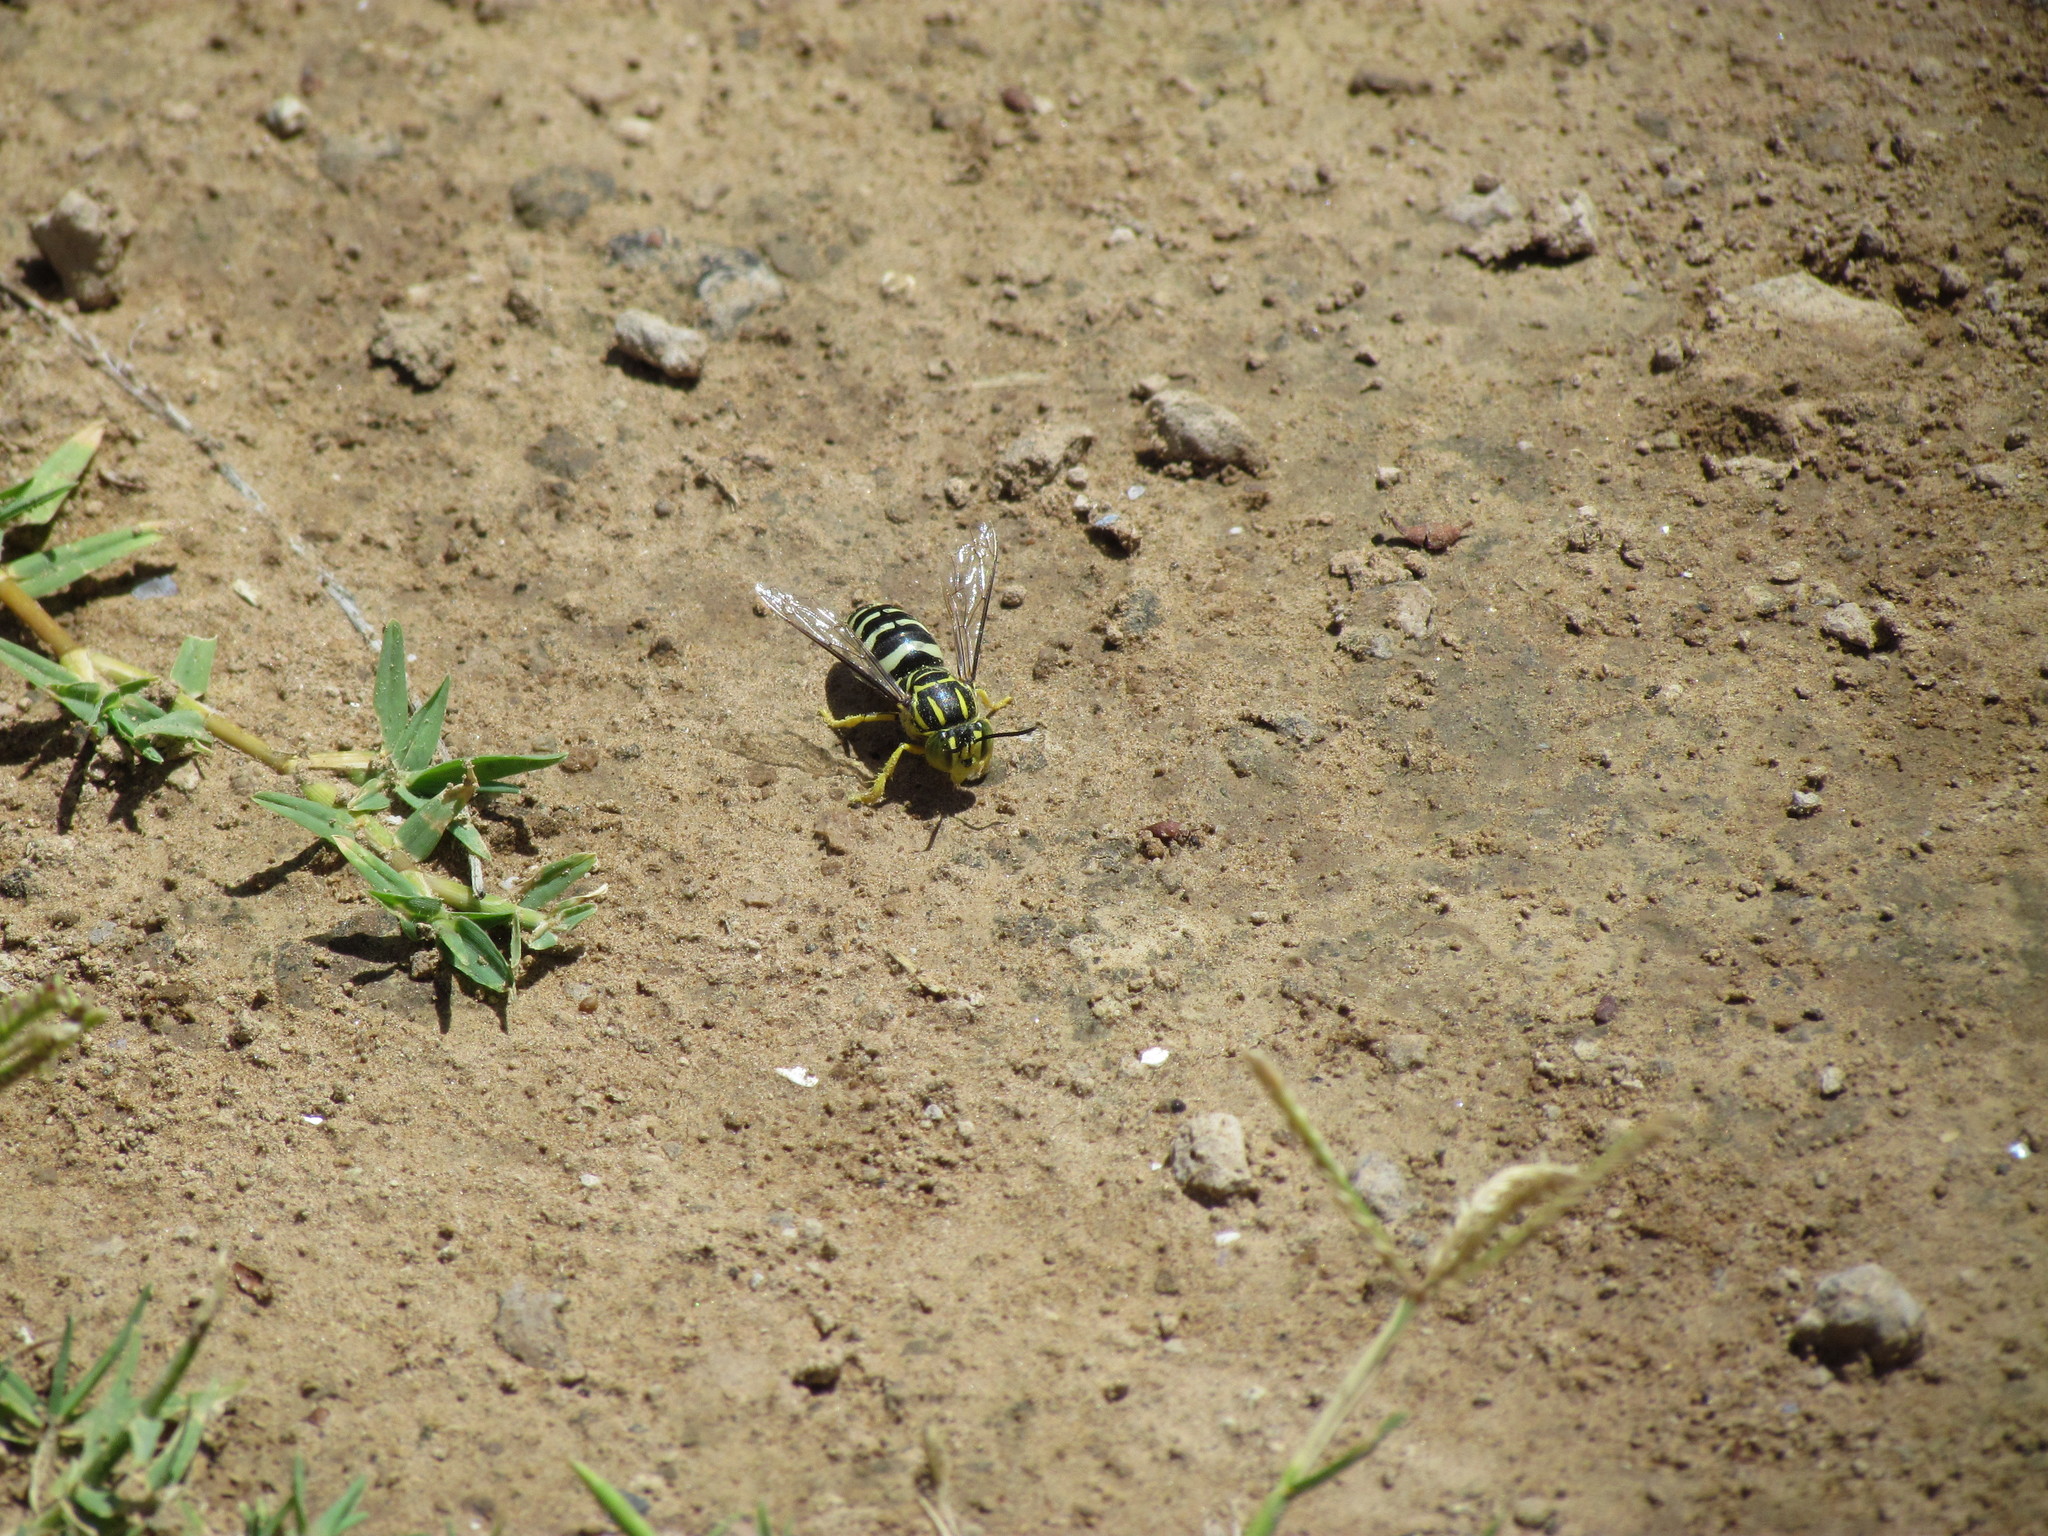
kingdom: Animalia
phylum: Arthropoda
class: Insecta
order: Hymenoptera
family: Crabronidae
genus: Bicyrtes
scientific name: Bicyrtes variegatus
